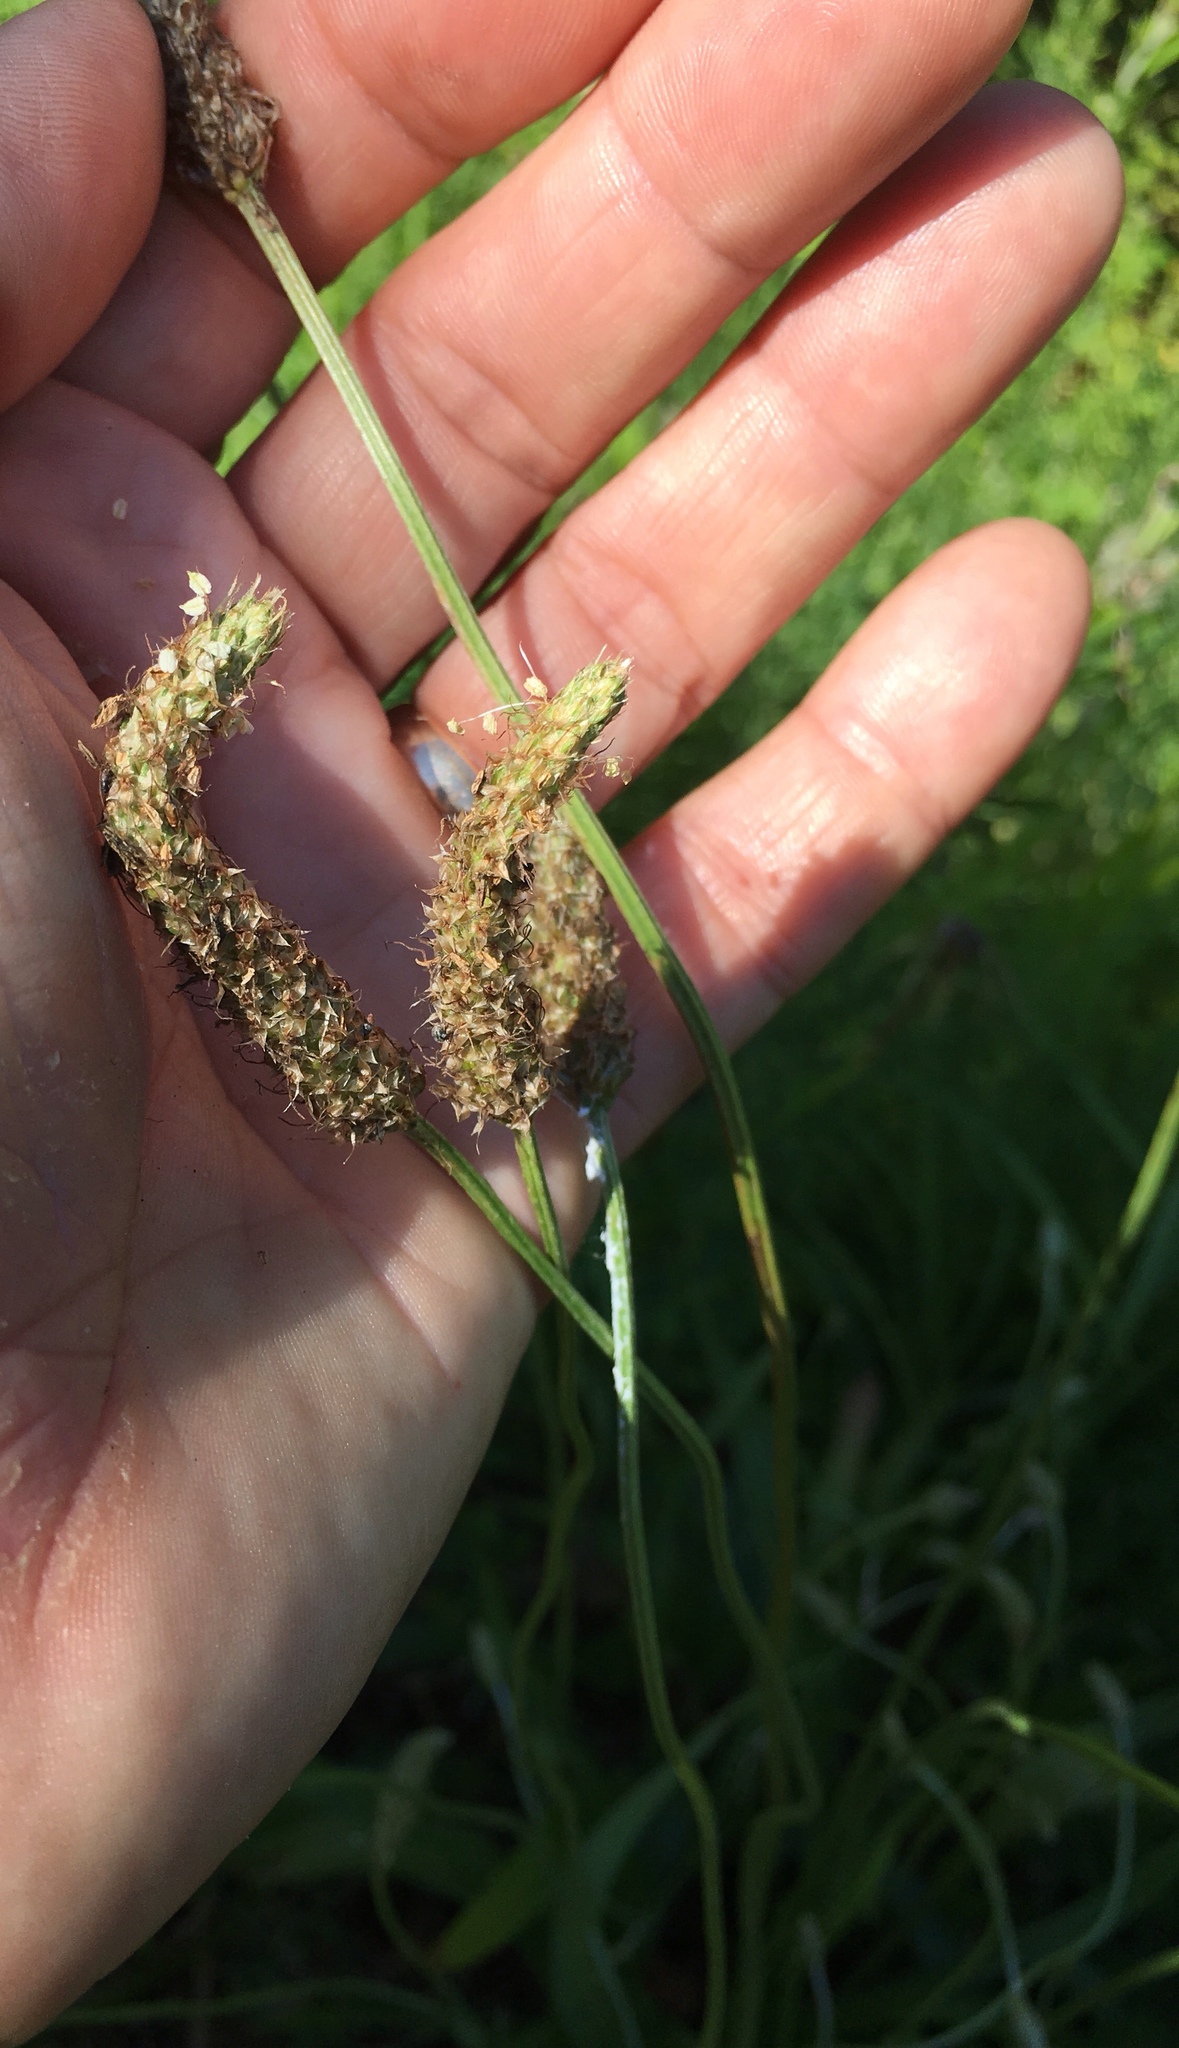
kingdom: Plantae
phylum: Tracheophyta
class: Magnoliopsida
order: Lamiales
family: Plantaginaceae
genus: Plantago
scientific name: Plantago lanceolata
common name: Ribwort plantain
